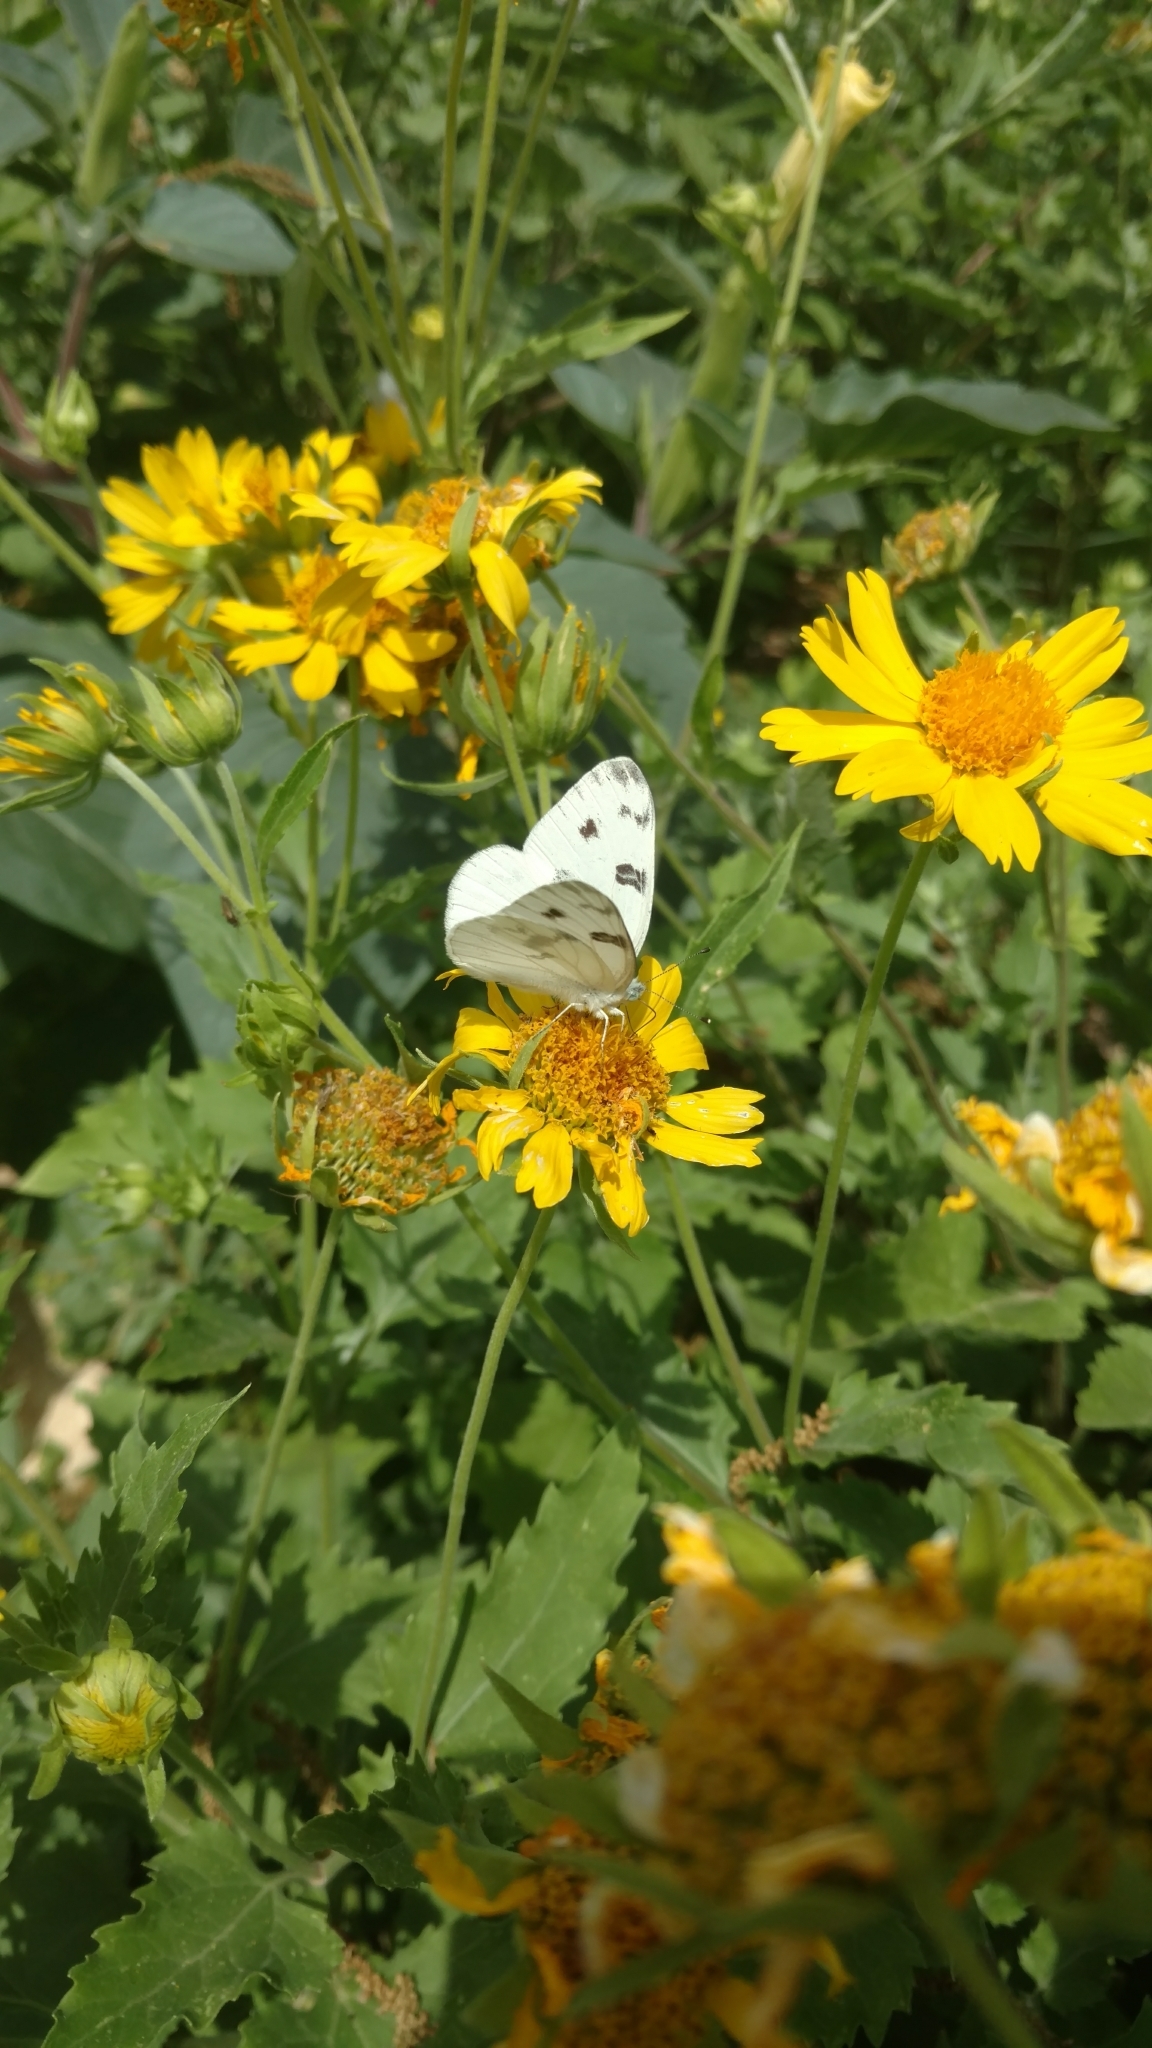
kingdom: Animalia
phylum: Arthropoda
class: Insecta
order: Lepidoptera
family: Pieridae
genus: Pontia
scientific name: Pontia protodice
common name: Checkered white
